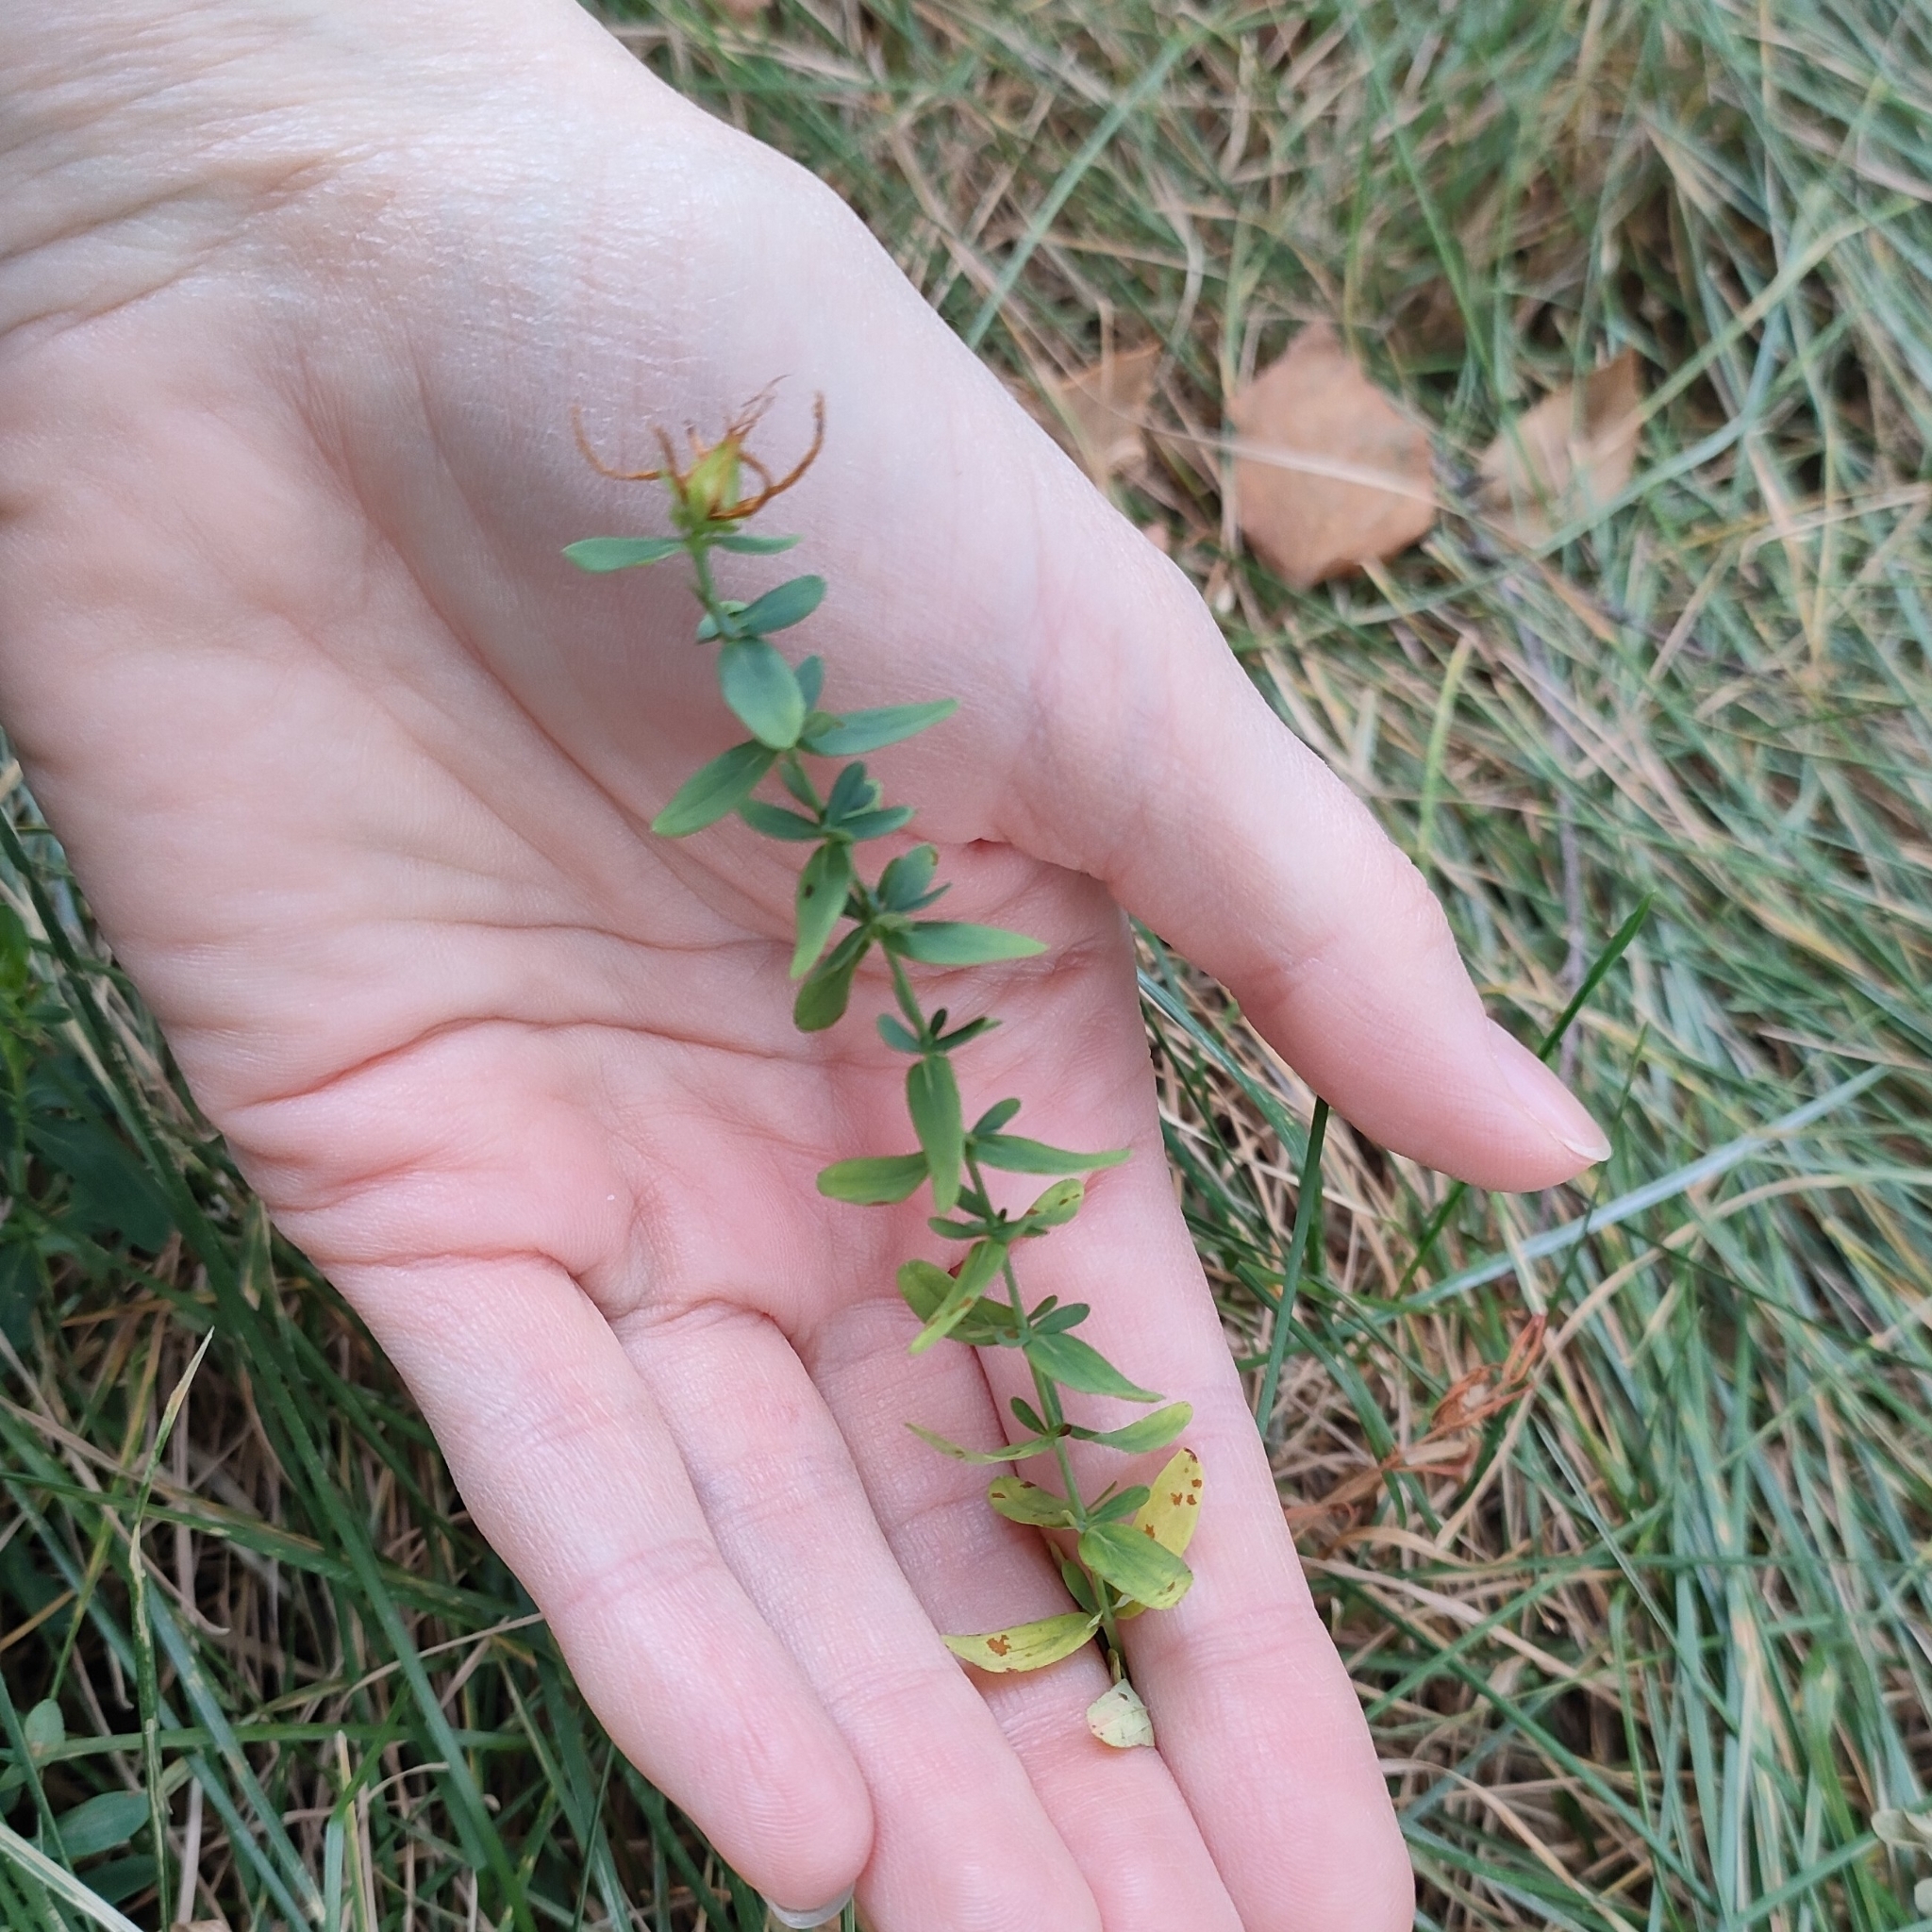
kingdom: Plantae
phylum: Tracheophyta
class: Magnoliopsida
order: Malpighiales
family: Hypericaceae
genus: Hypericum
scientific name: Hypericum perforatum
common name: Common st. johnswort
